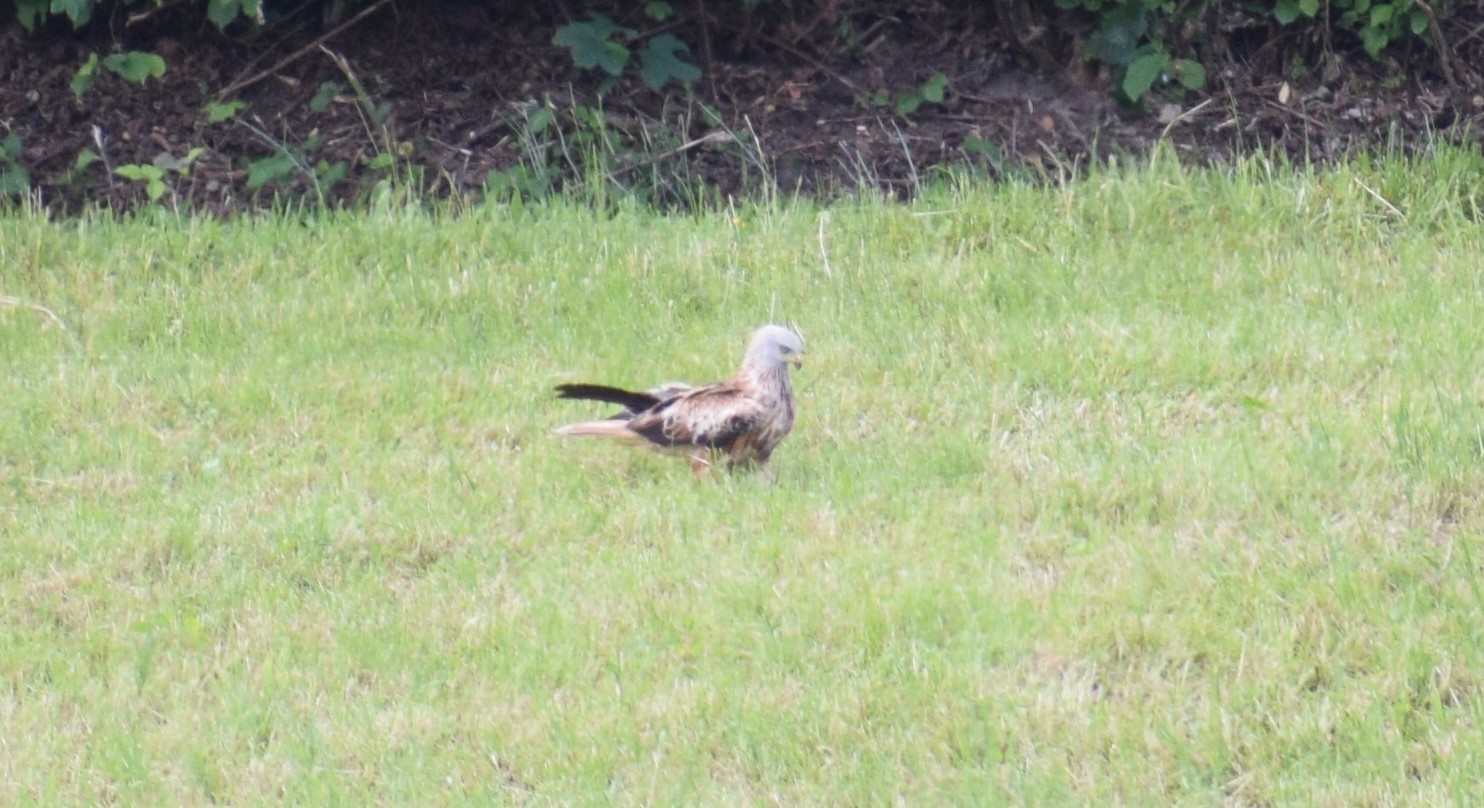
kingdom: Animalia
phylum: Chordata
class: Aves
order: Accipitriformes
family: Accipitridae
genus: Milvus
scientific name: Milvus milvus
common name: Red kite
